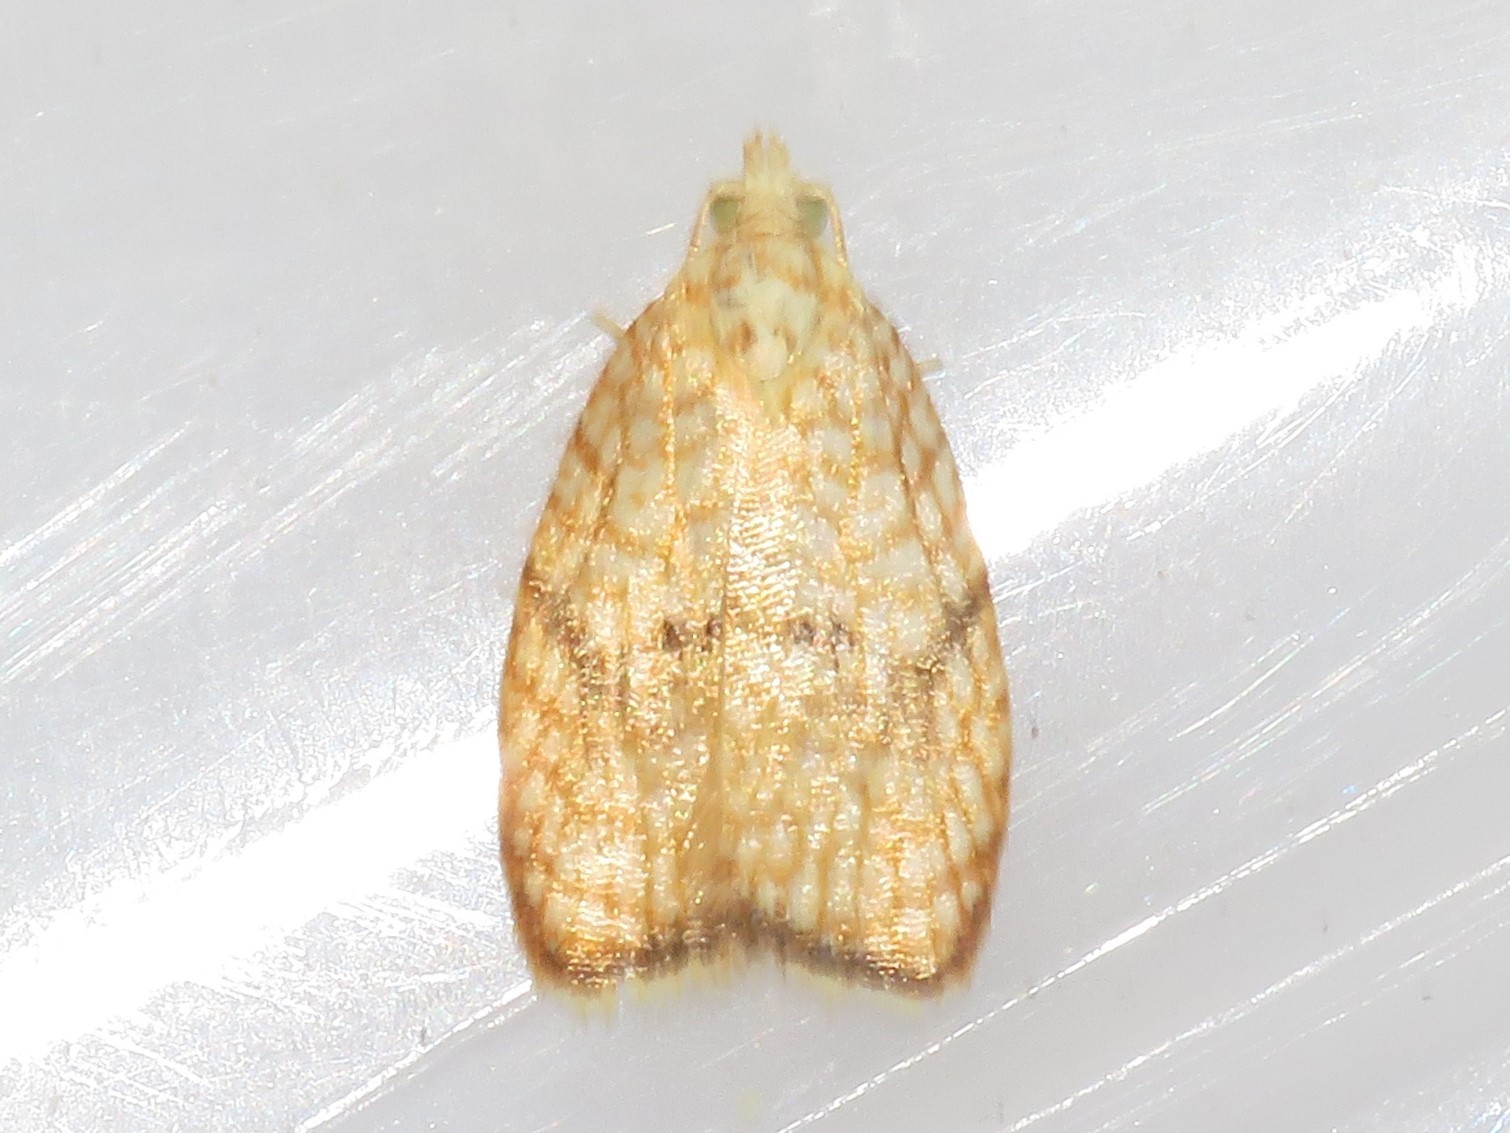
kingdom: Animalia
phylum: Arthropoda
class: Insecta
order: Lepidoptera
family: Tortricidae
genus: Acleris
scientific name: Acleris forsskaleana
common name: Maple button
